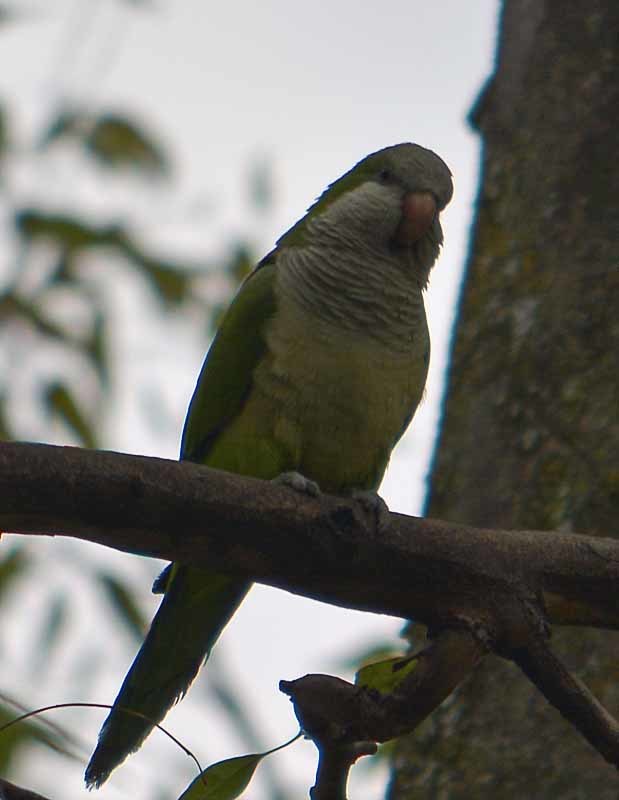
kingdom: Animalia
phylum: Chordata
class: Aves
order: Psittaciformes
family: Psittacidae
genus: Myiopsitta
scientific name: Myiopsitta monachus
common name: Monk parakeet
